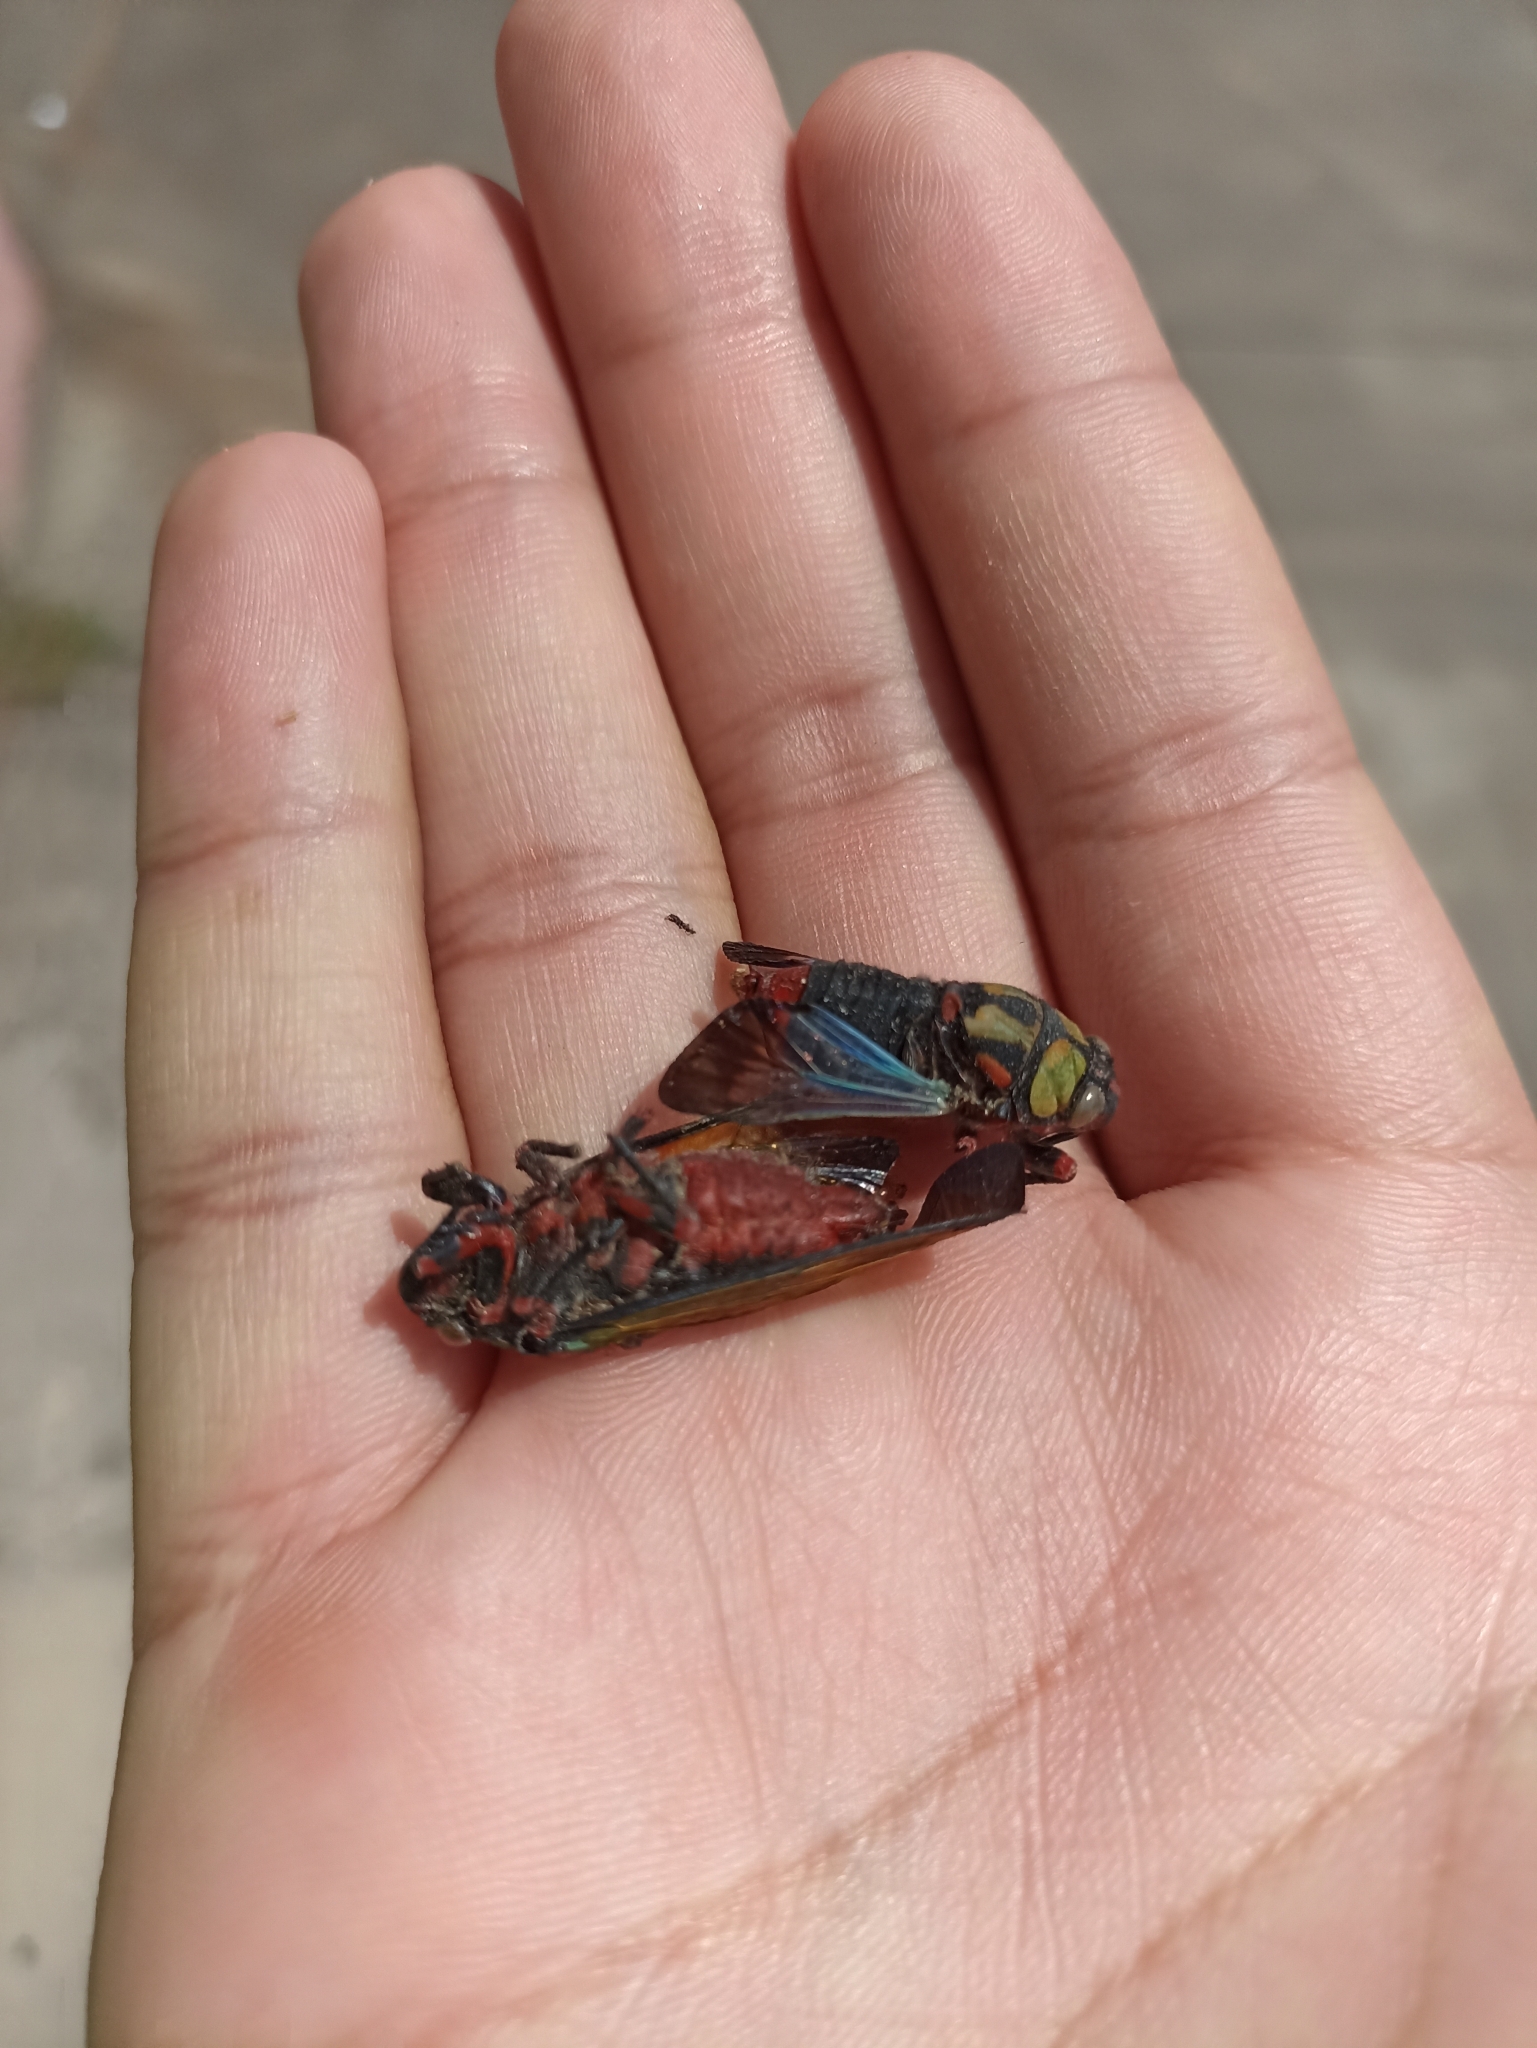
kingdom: Animalia
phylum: Arthropoda
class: Insecta
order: Hemiptera
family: Cicadidae
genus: Carineta
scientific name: Carineta diardi
